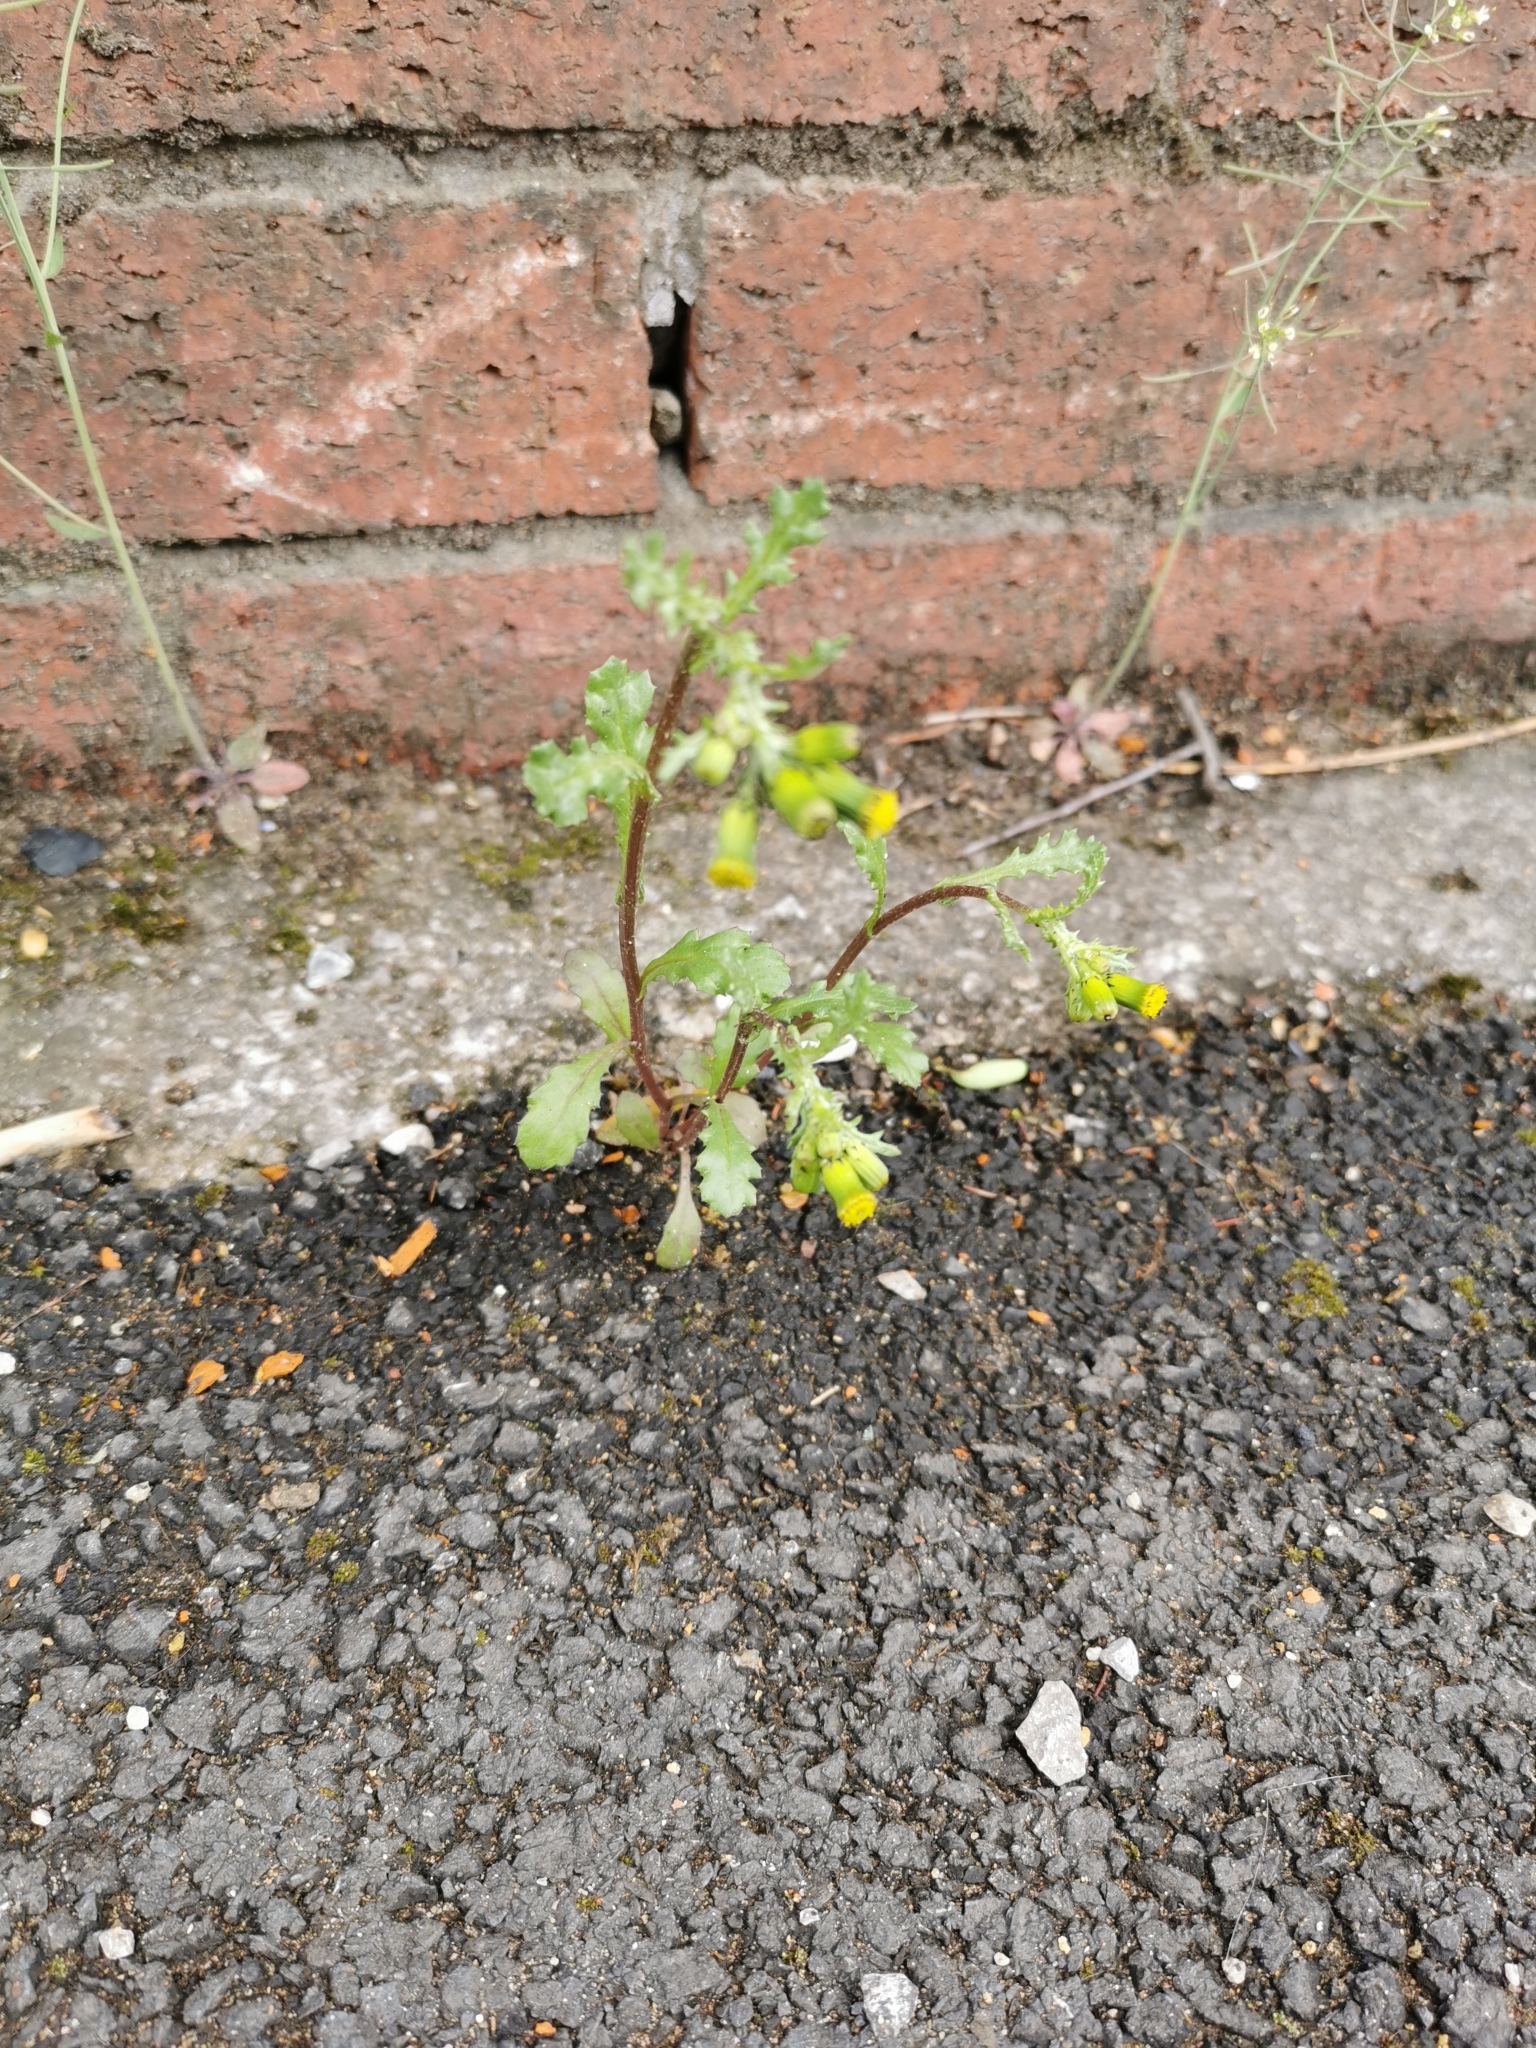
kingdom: Plantae
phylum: Tracheophyta
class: Magnoliopsida
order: Asterales
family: Asteraceae
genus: Senecio
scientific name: Senecio vulgaris
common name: Old-man-in-the-spring
